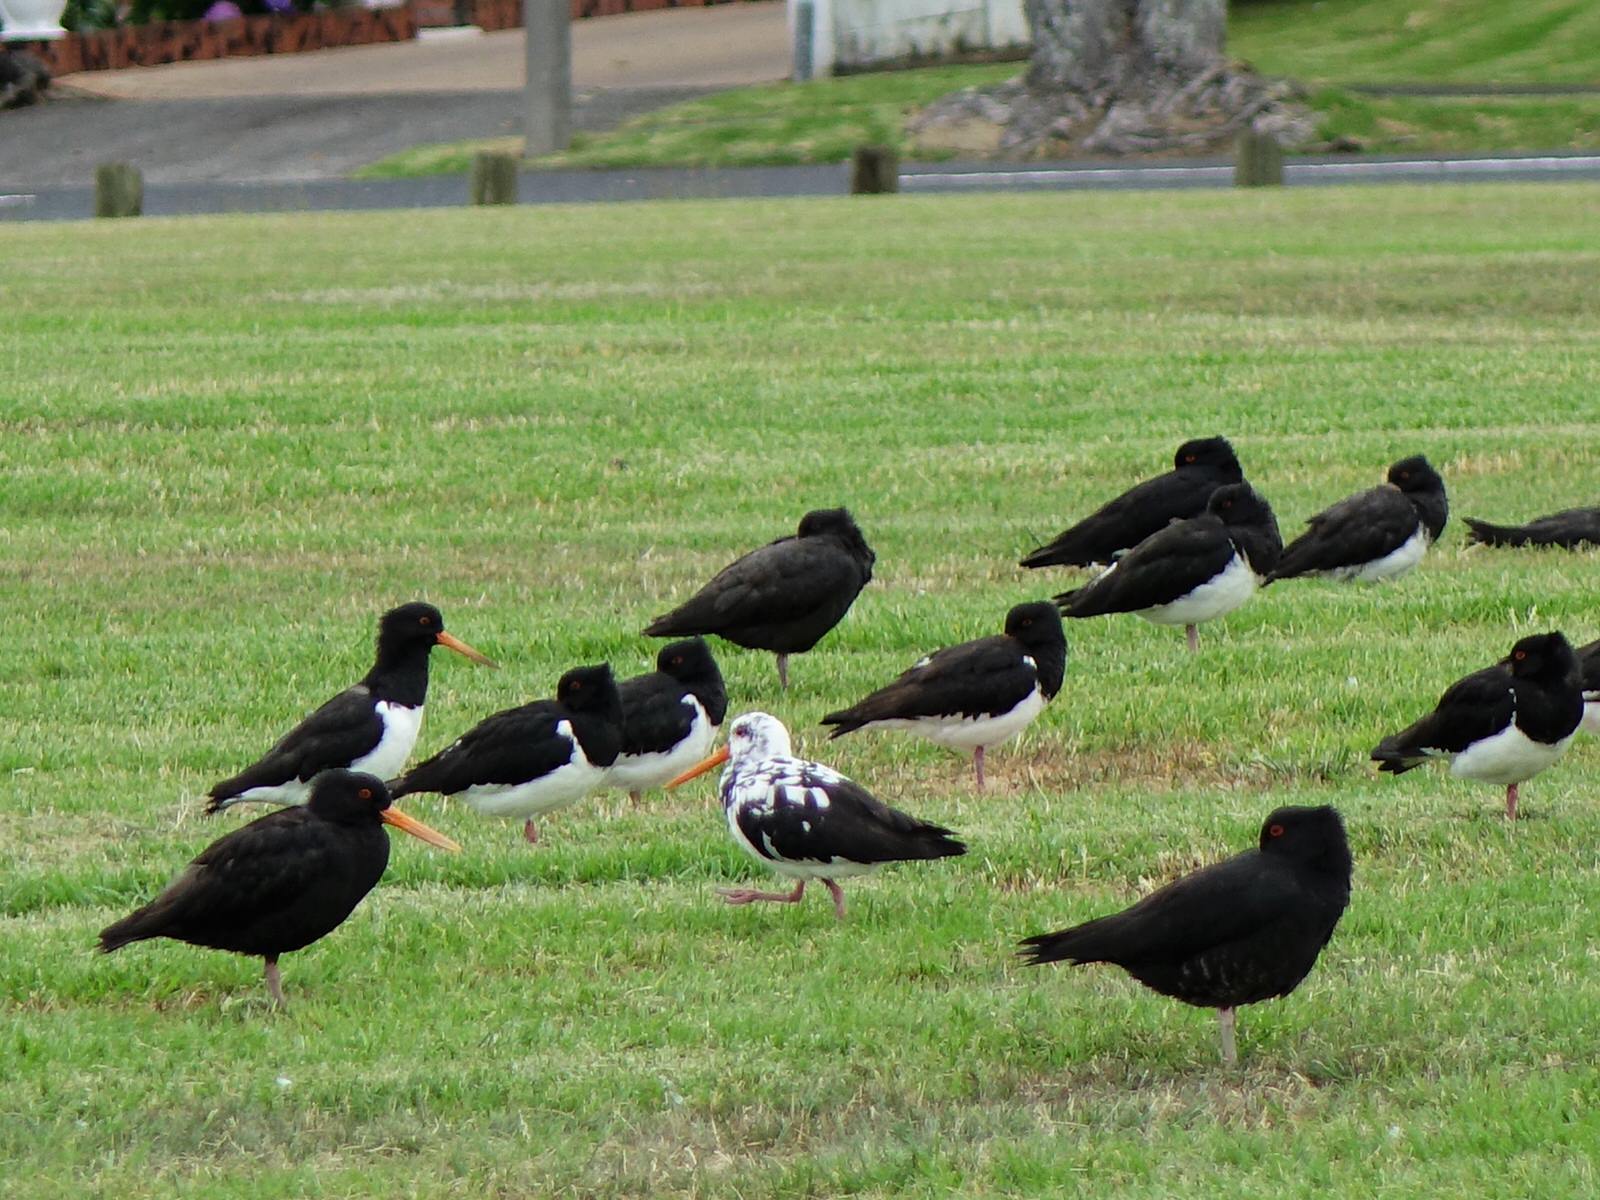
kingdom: Animalia
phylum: Chordata
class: Aves
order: Charadriiformes
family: Haematopodidae
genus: Haematopus
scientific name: Haematopus finschi
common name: South island oystercatcher
